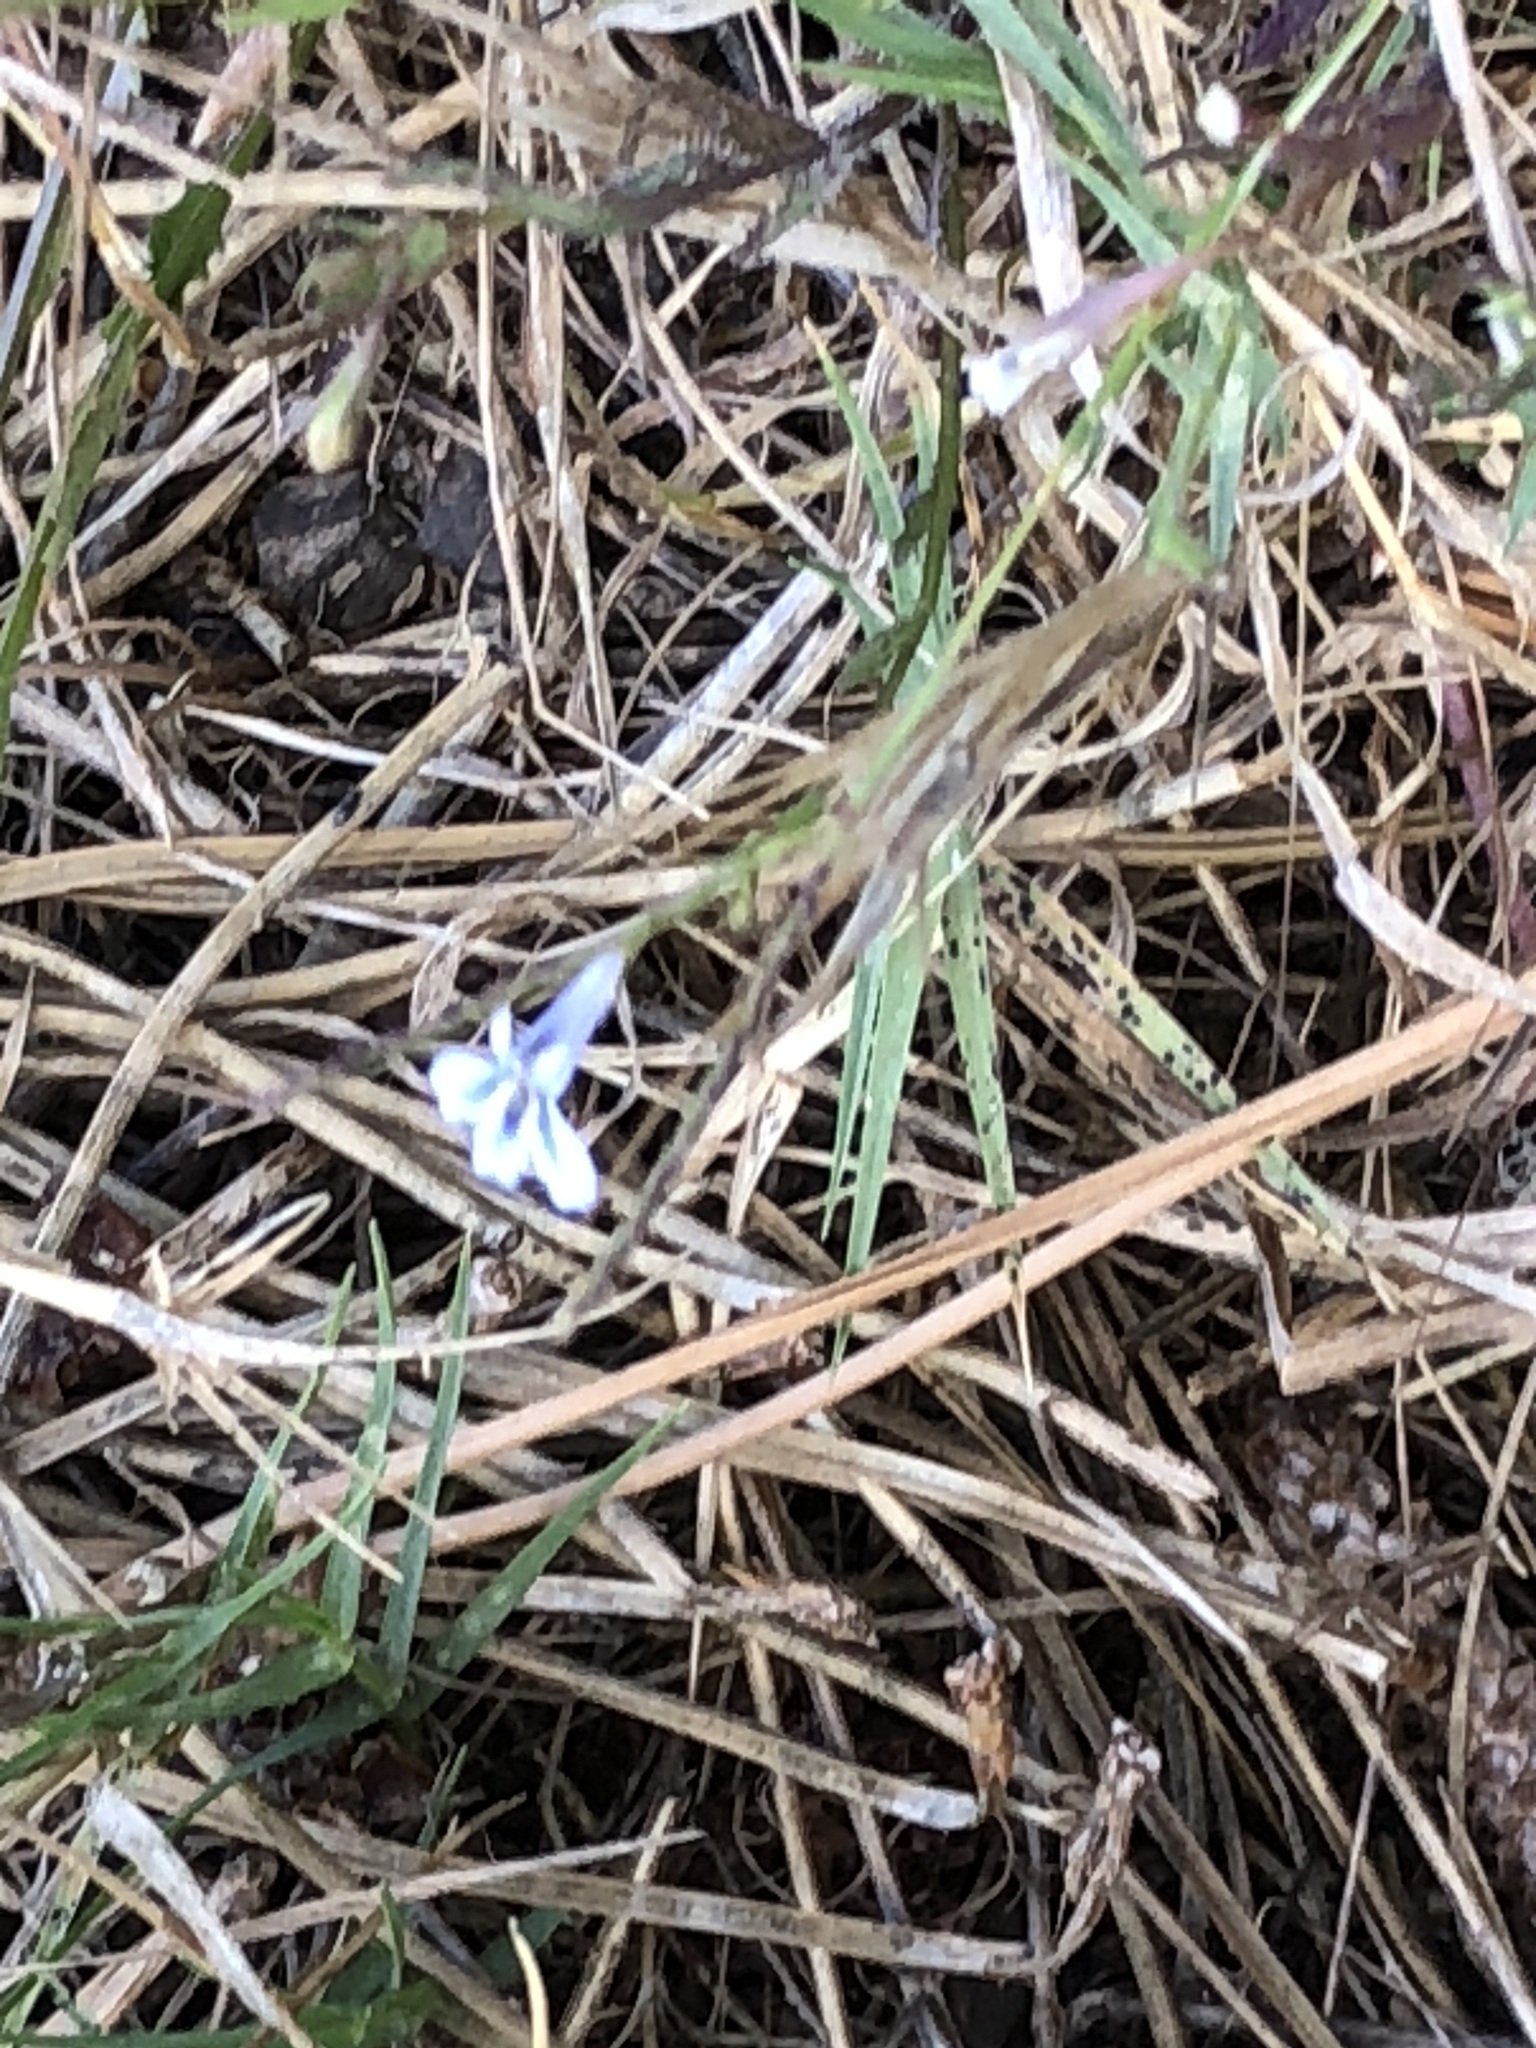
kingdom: Plantae
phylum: Tracheophyta
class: Magnoliopsida
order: Asterales
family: Campanulaceae
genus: Lobelia
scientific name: Lobelia erinus
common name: Edging lobelia
